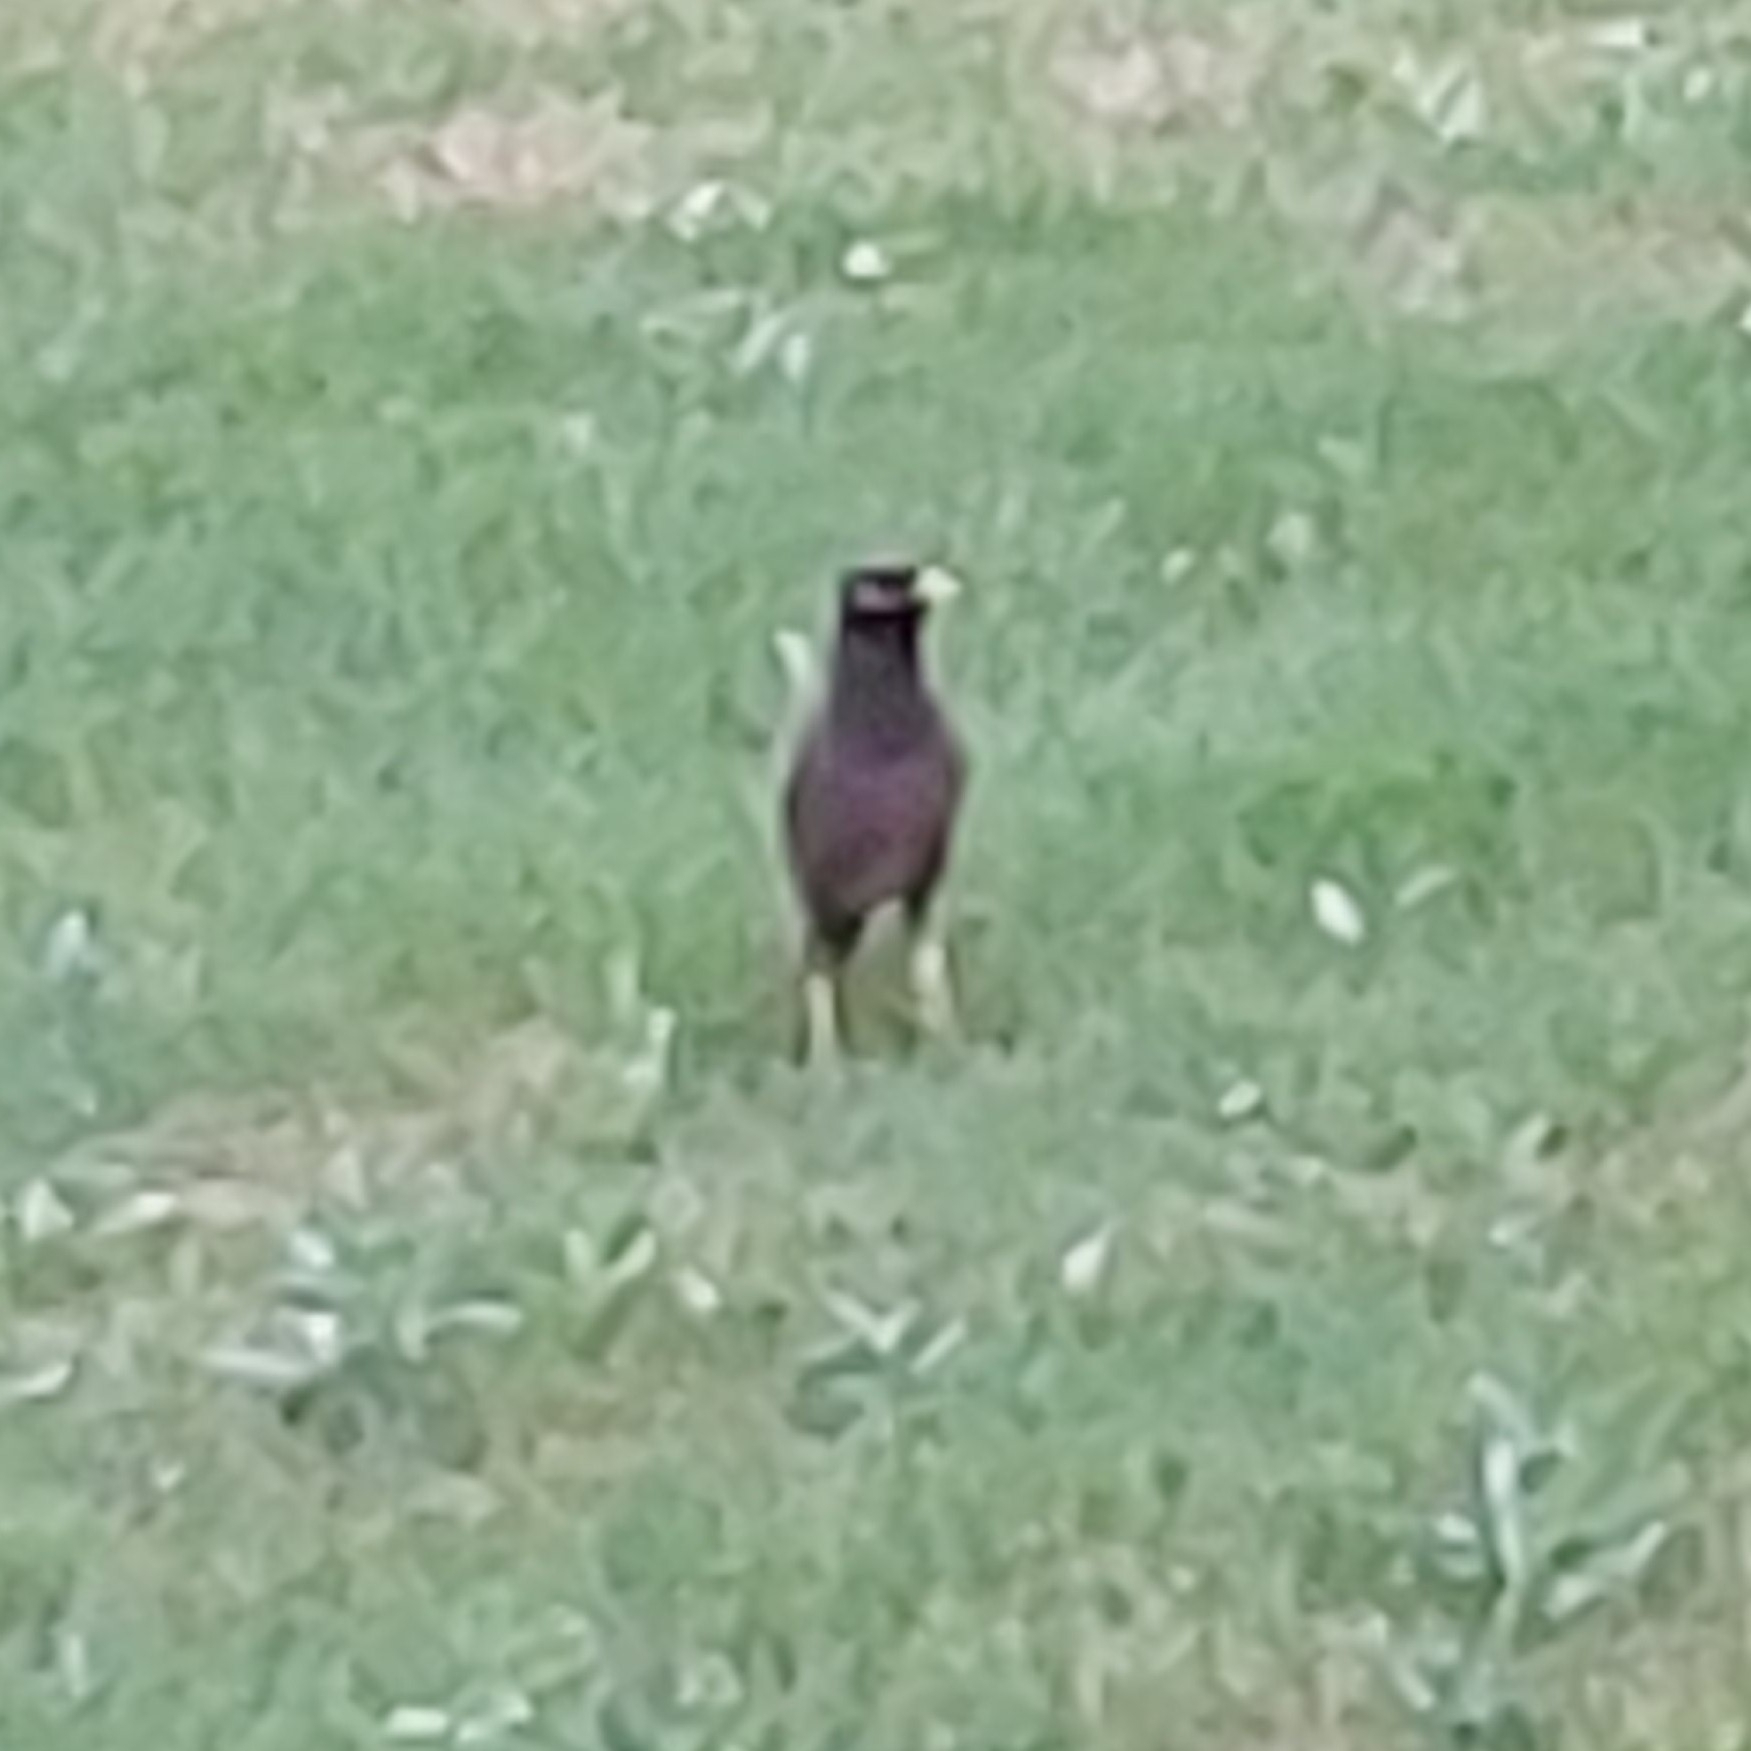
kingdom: Animalia
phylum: Chordata
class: Aves
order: Passeriformes
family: Sturnidae
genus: Acridotheres
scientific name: Acridotheres tristis
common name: Common myna
